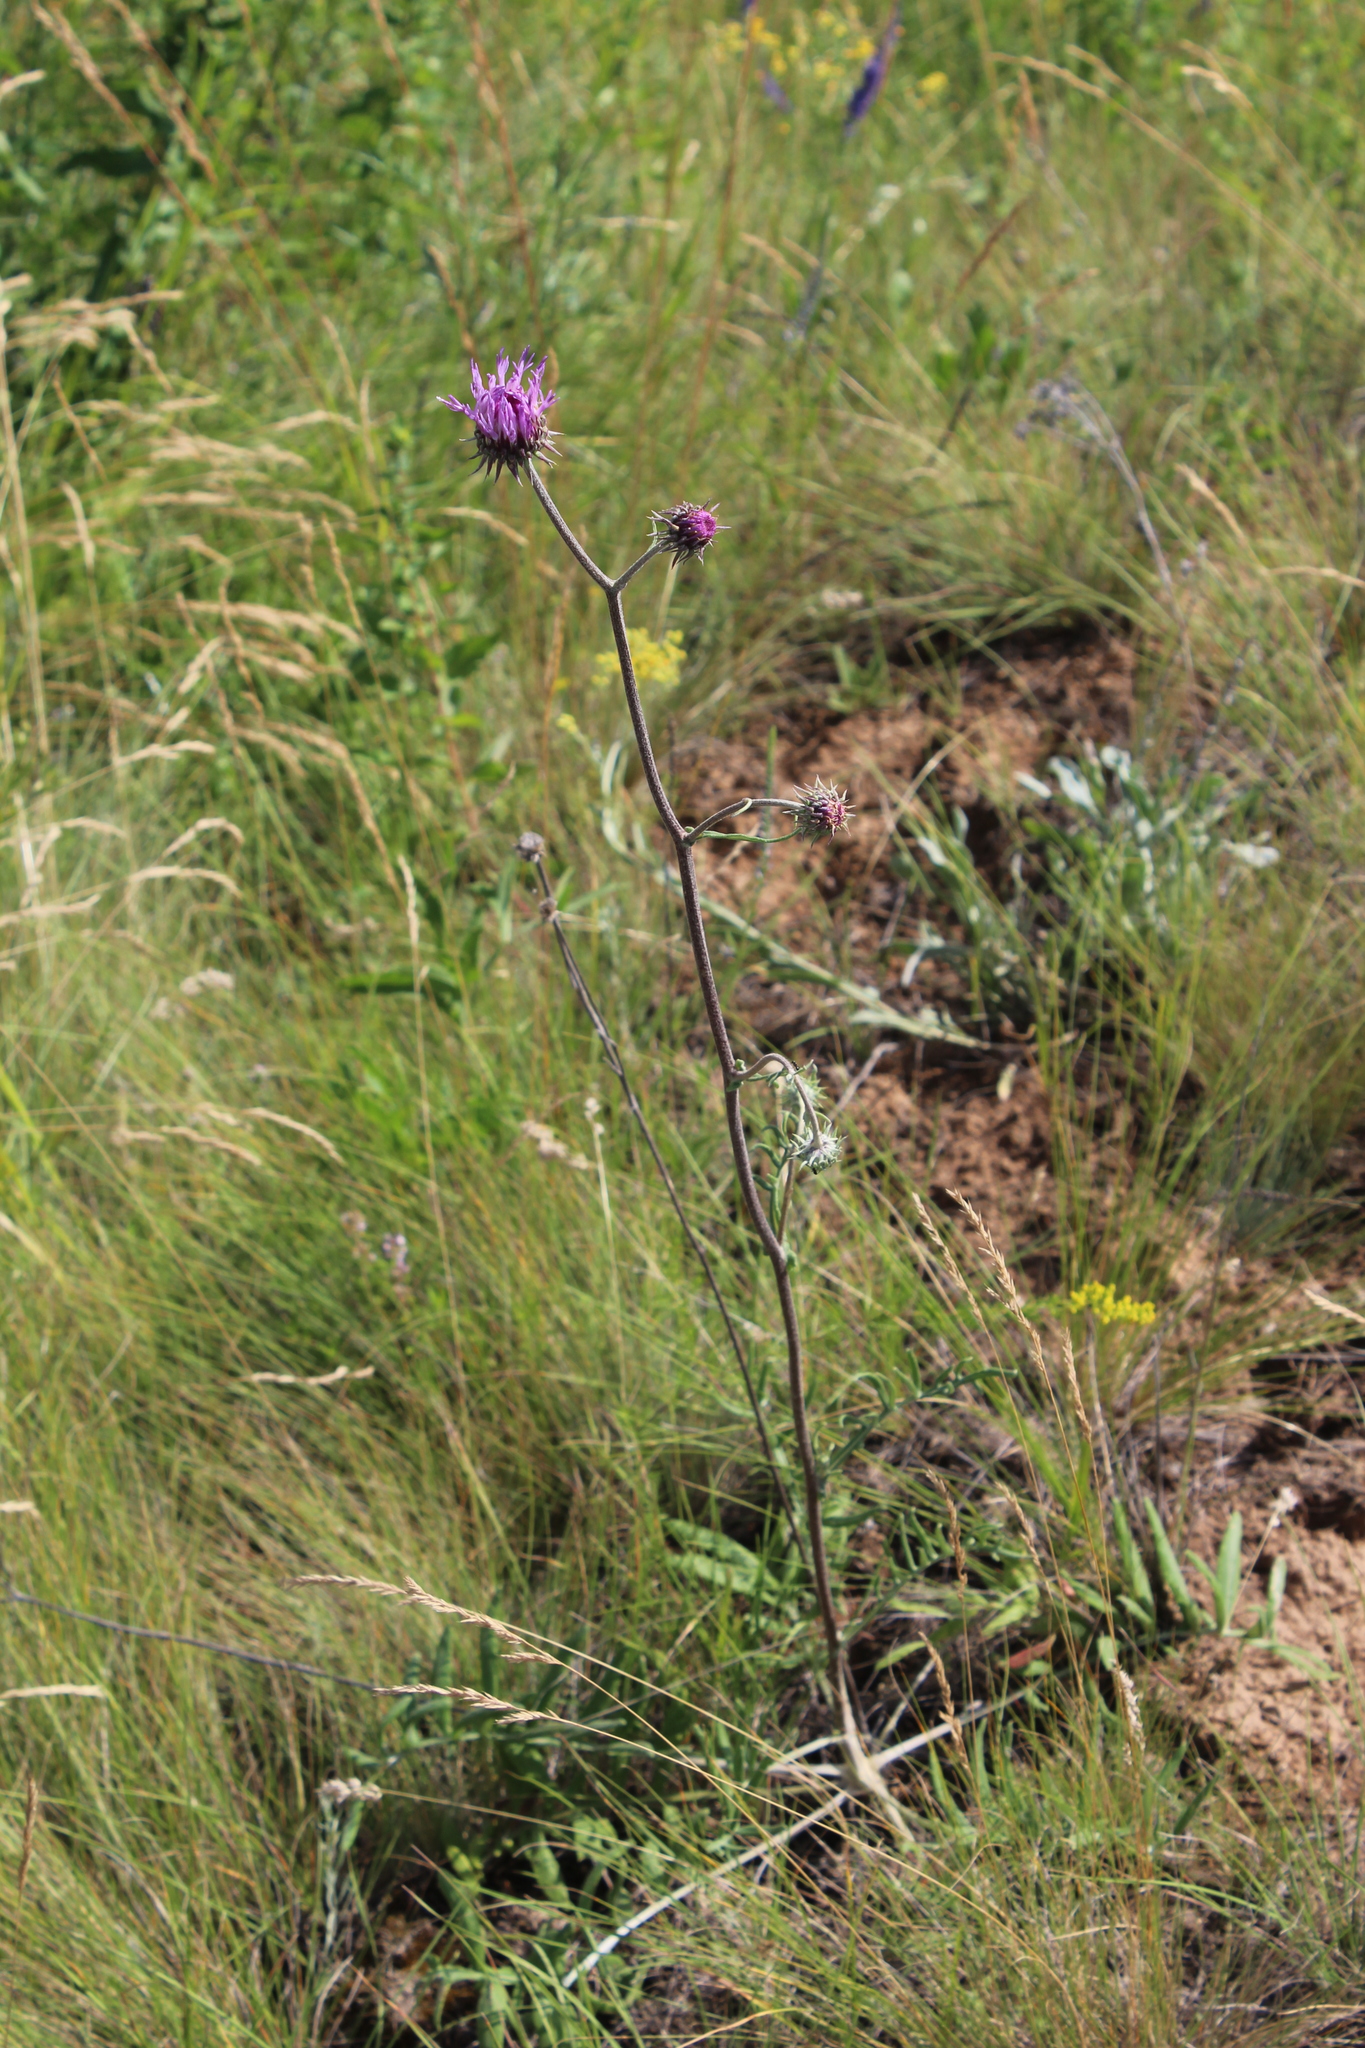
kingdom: Plantae
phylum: Tracheophyta
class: Magnoliopsida
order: Asterales
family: Asteraceae
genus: Jurinea
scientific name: Jurinea cyanoides
